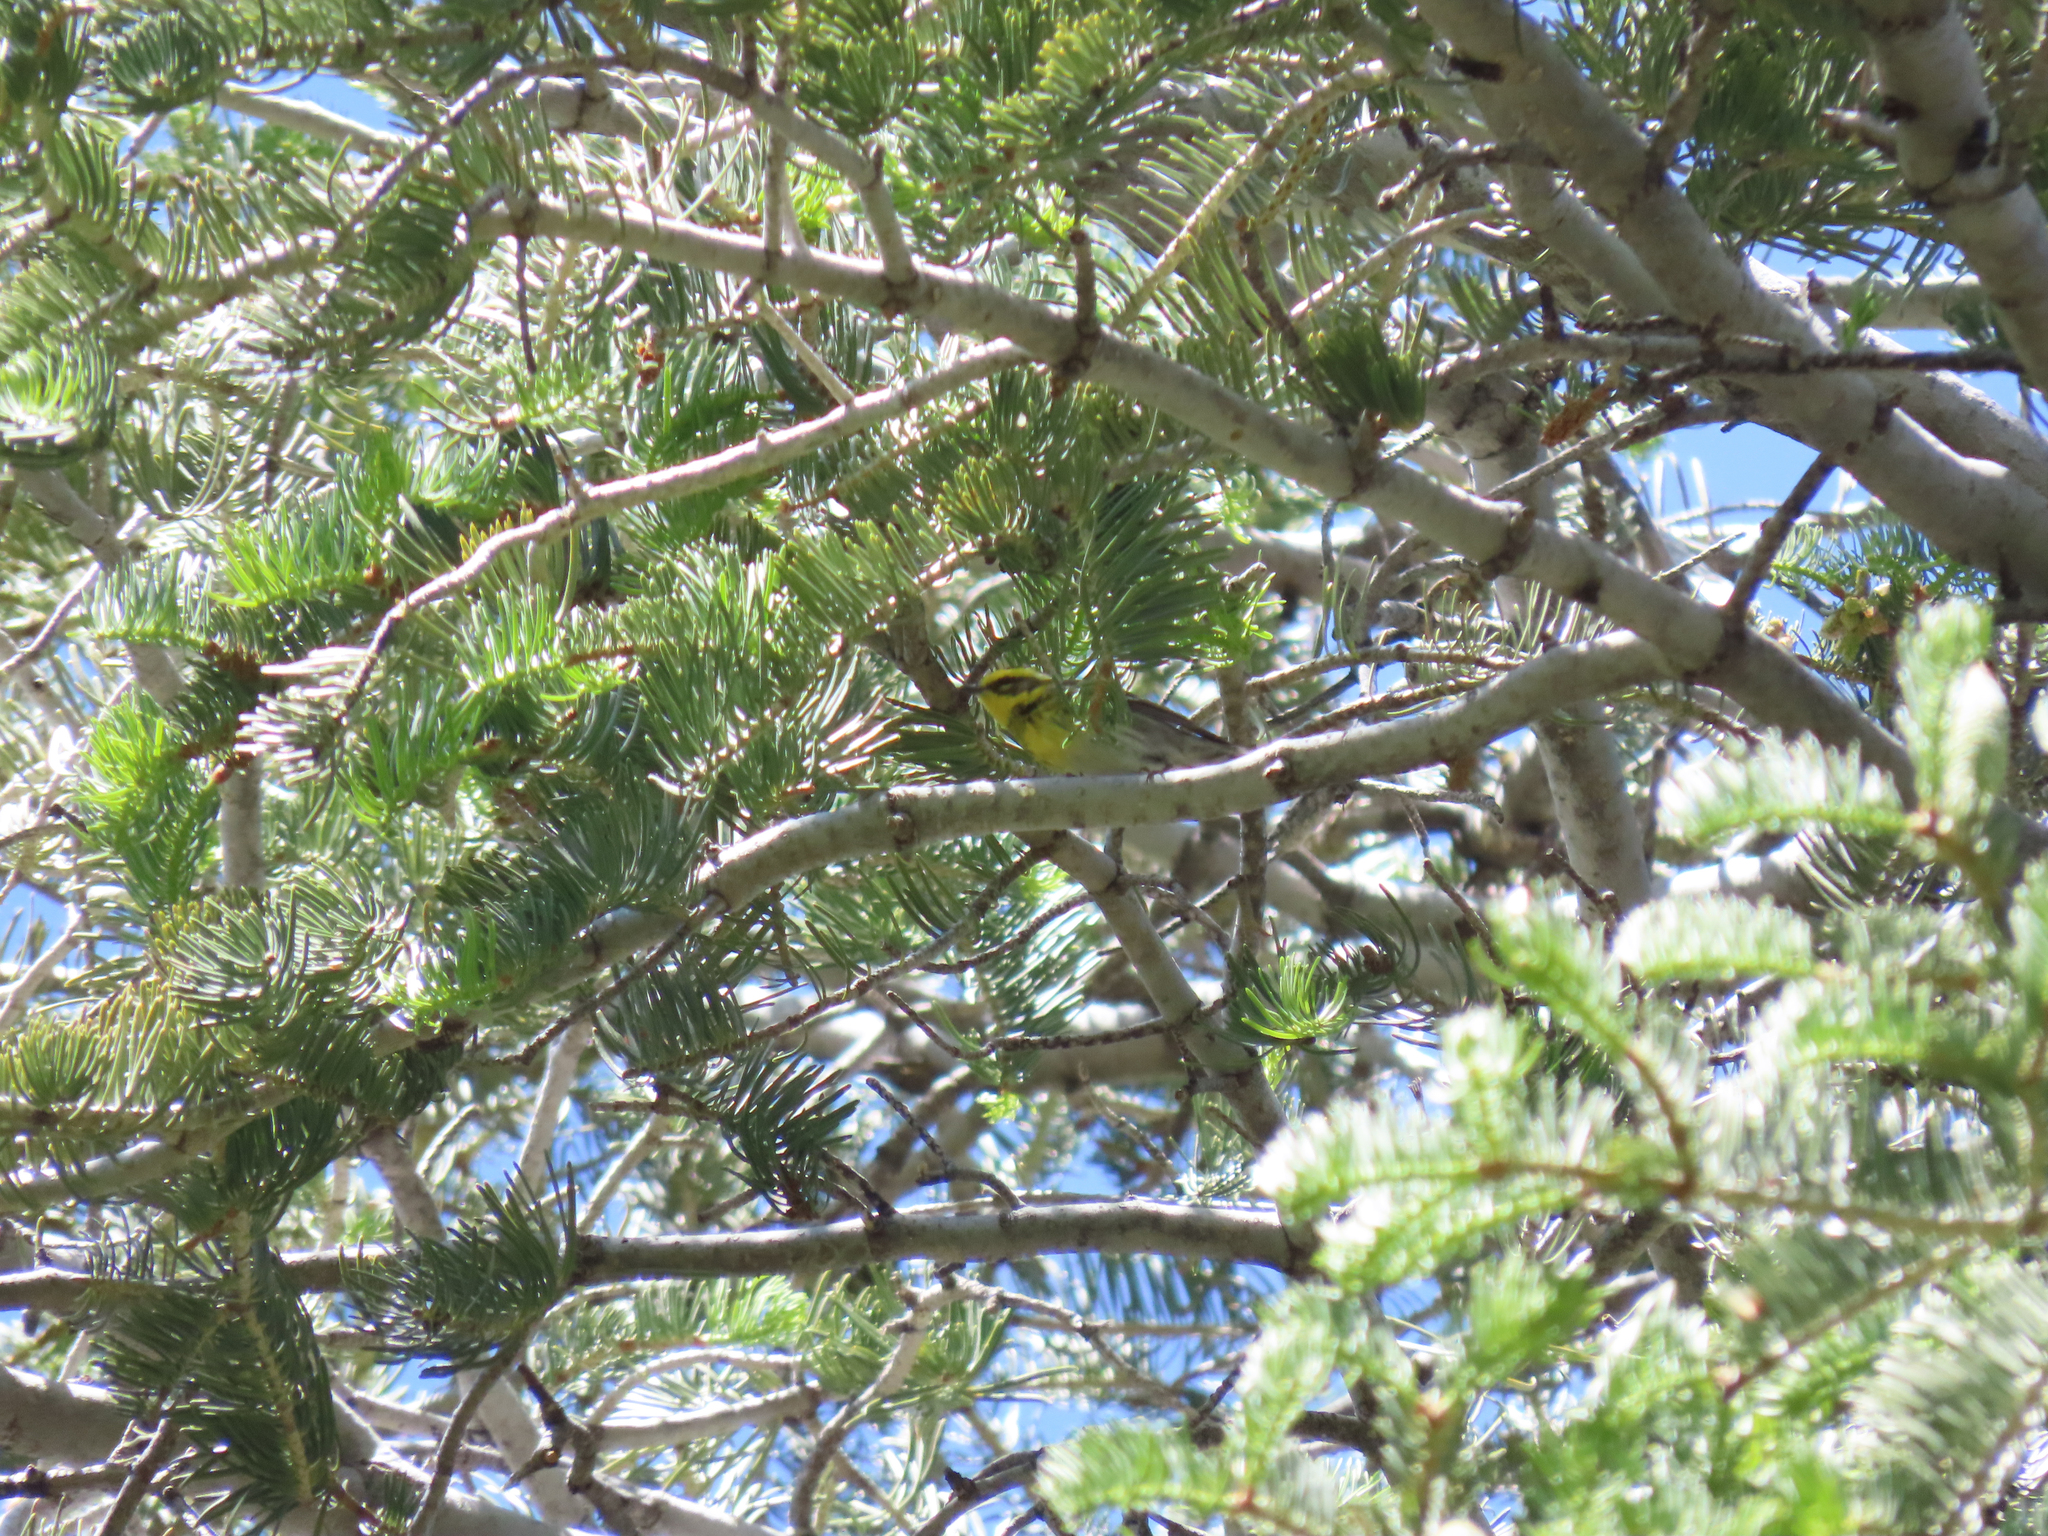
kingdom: Animalia
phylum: Chordata
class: Aves
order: Passeriformes
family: Parulidae
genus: Setophaga
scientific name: Setophaga townsendi
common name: Townsend's warbler
